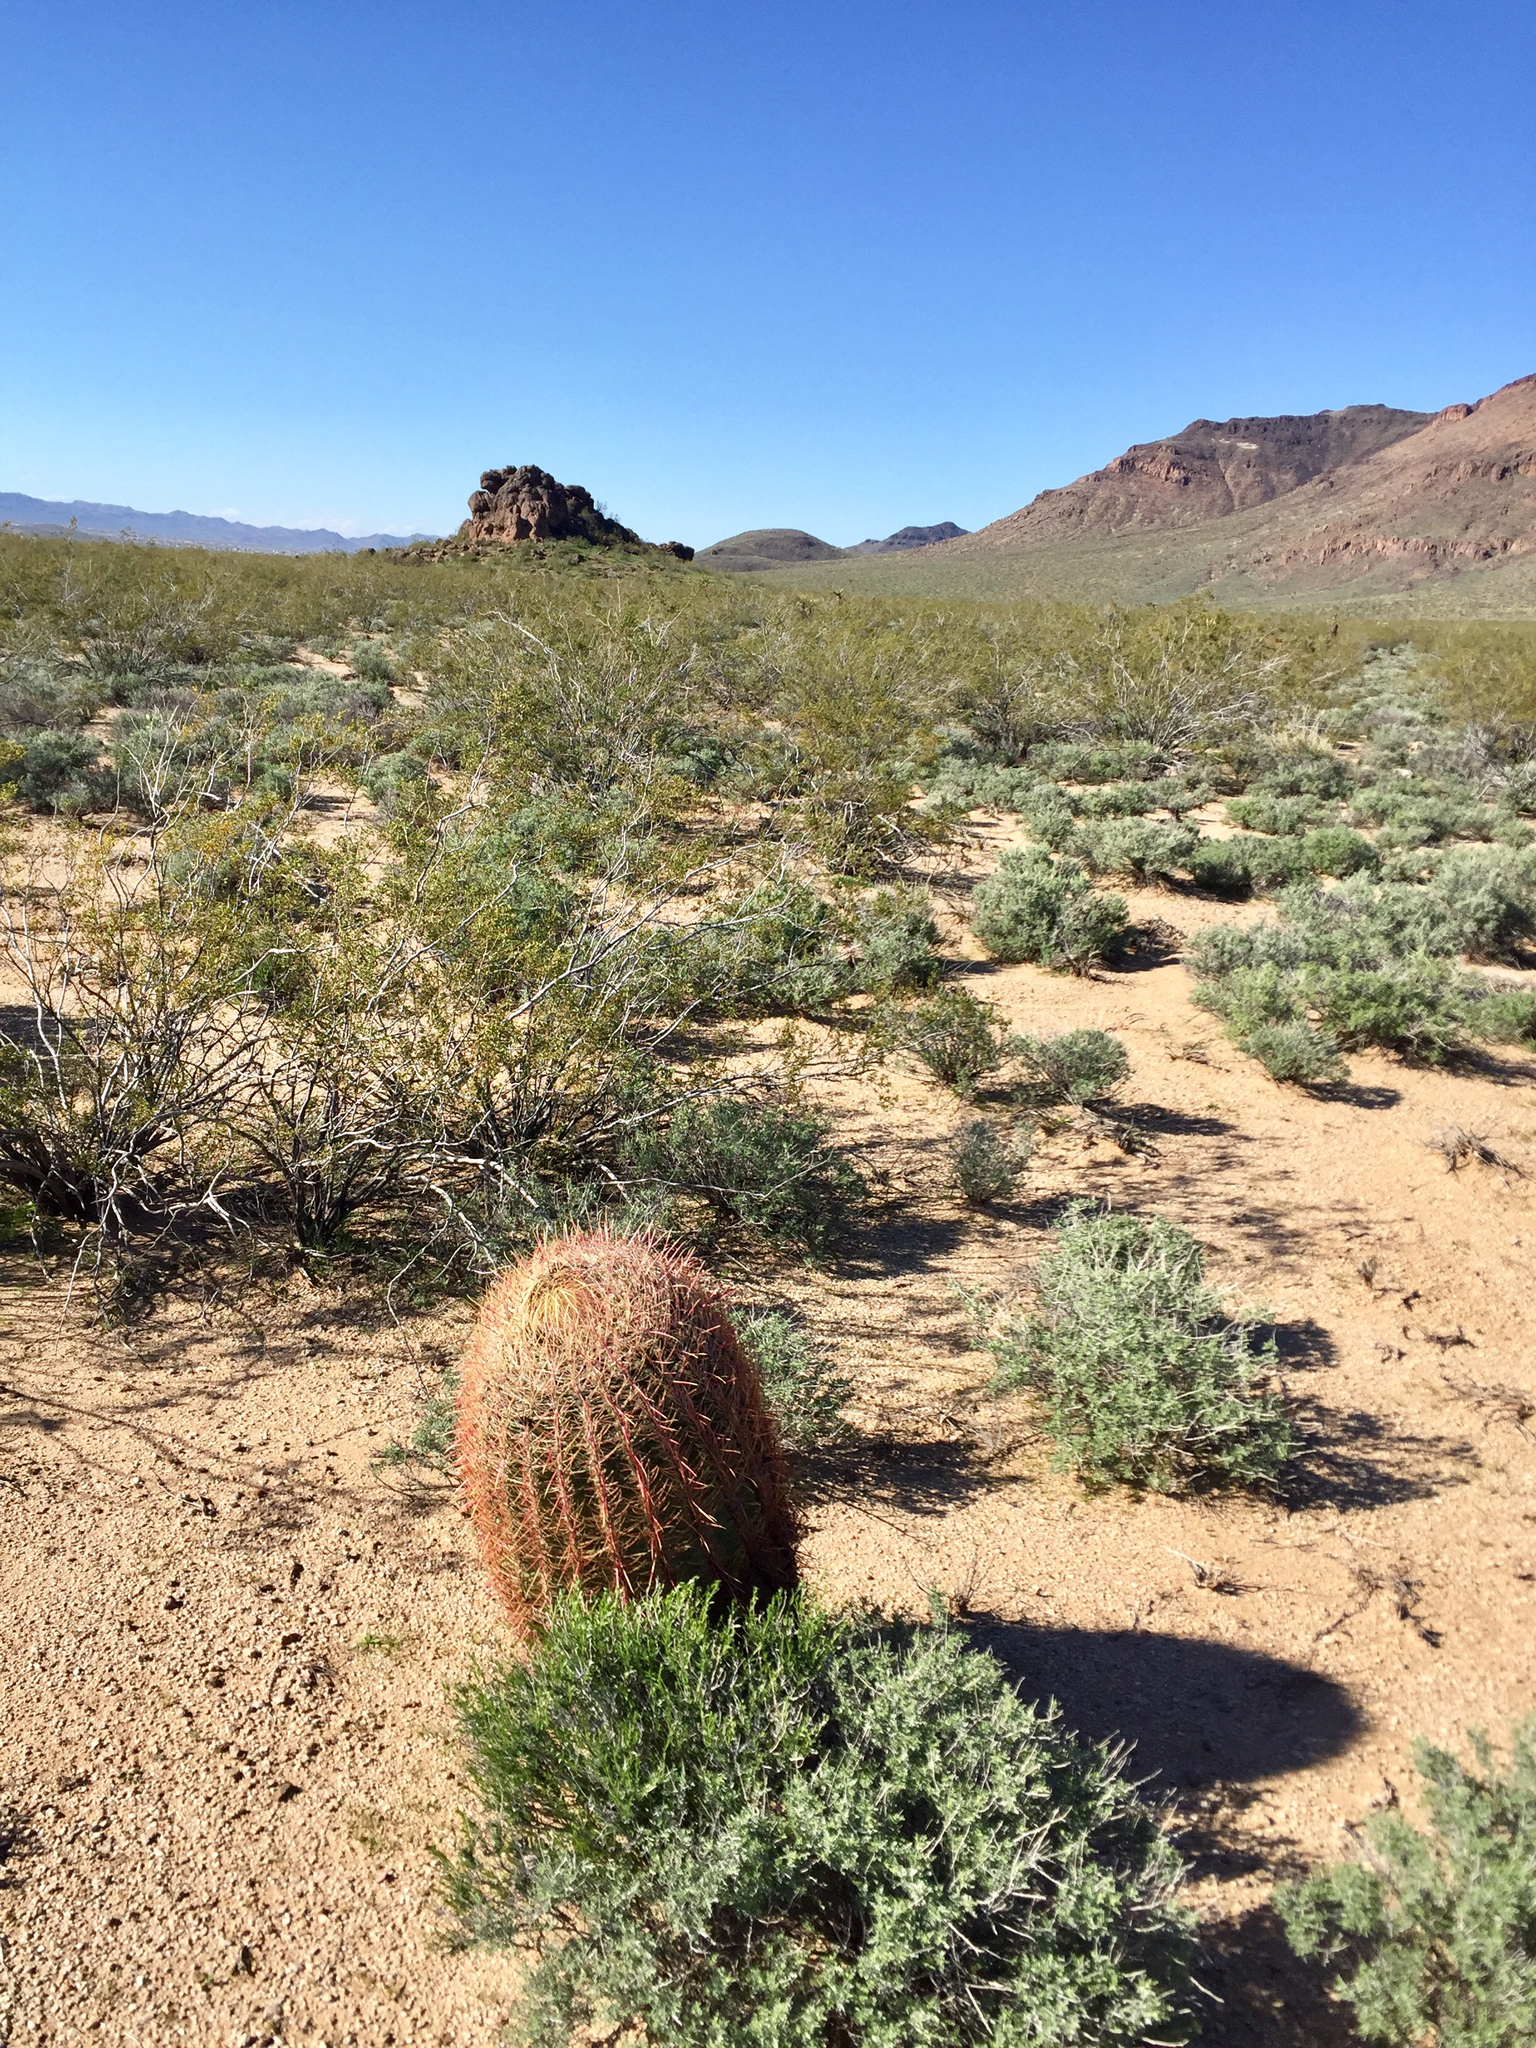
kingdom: Plantae
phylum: Tracheophyta
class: Magnoliopsida
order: Caryophyllales
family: Cactaceae
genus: Ferocactus
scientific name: Ferocactus cylindraceus
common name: California barrel cactus
